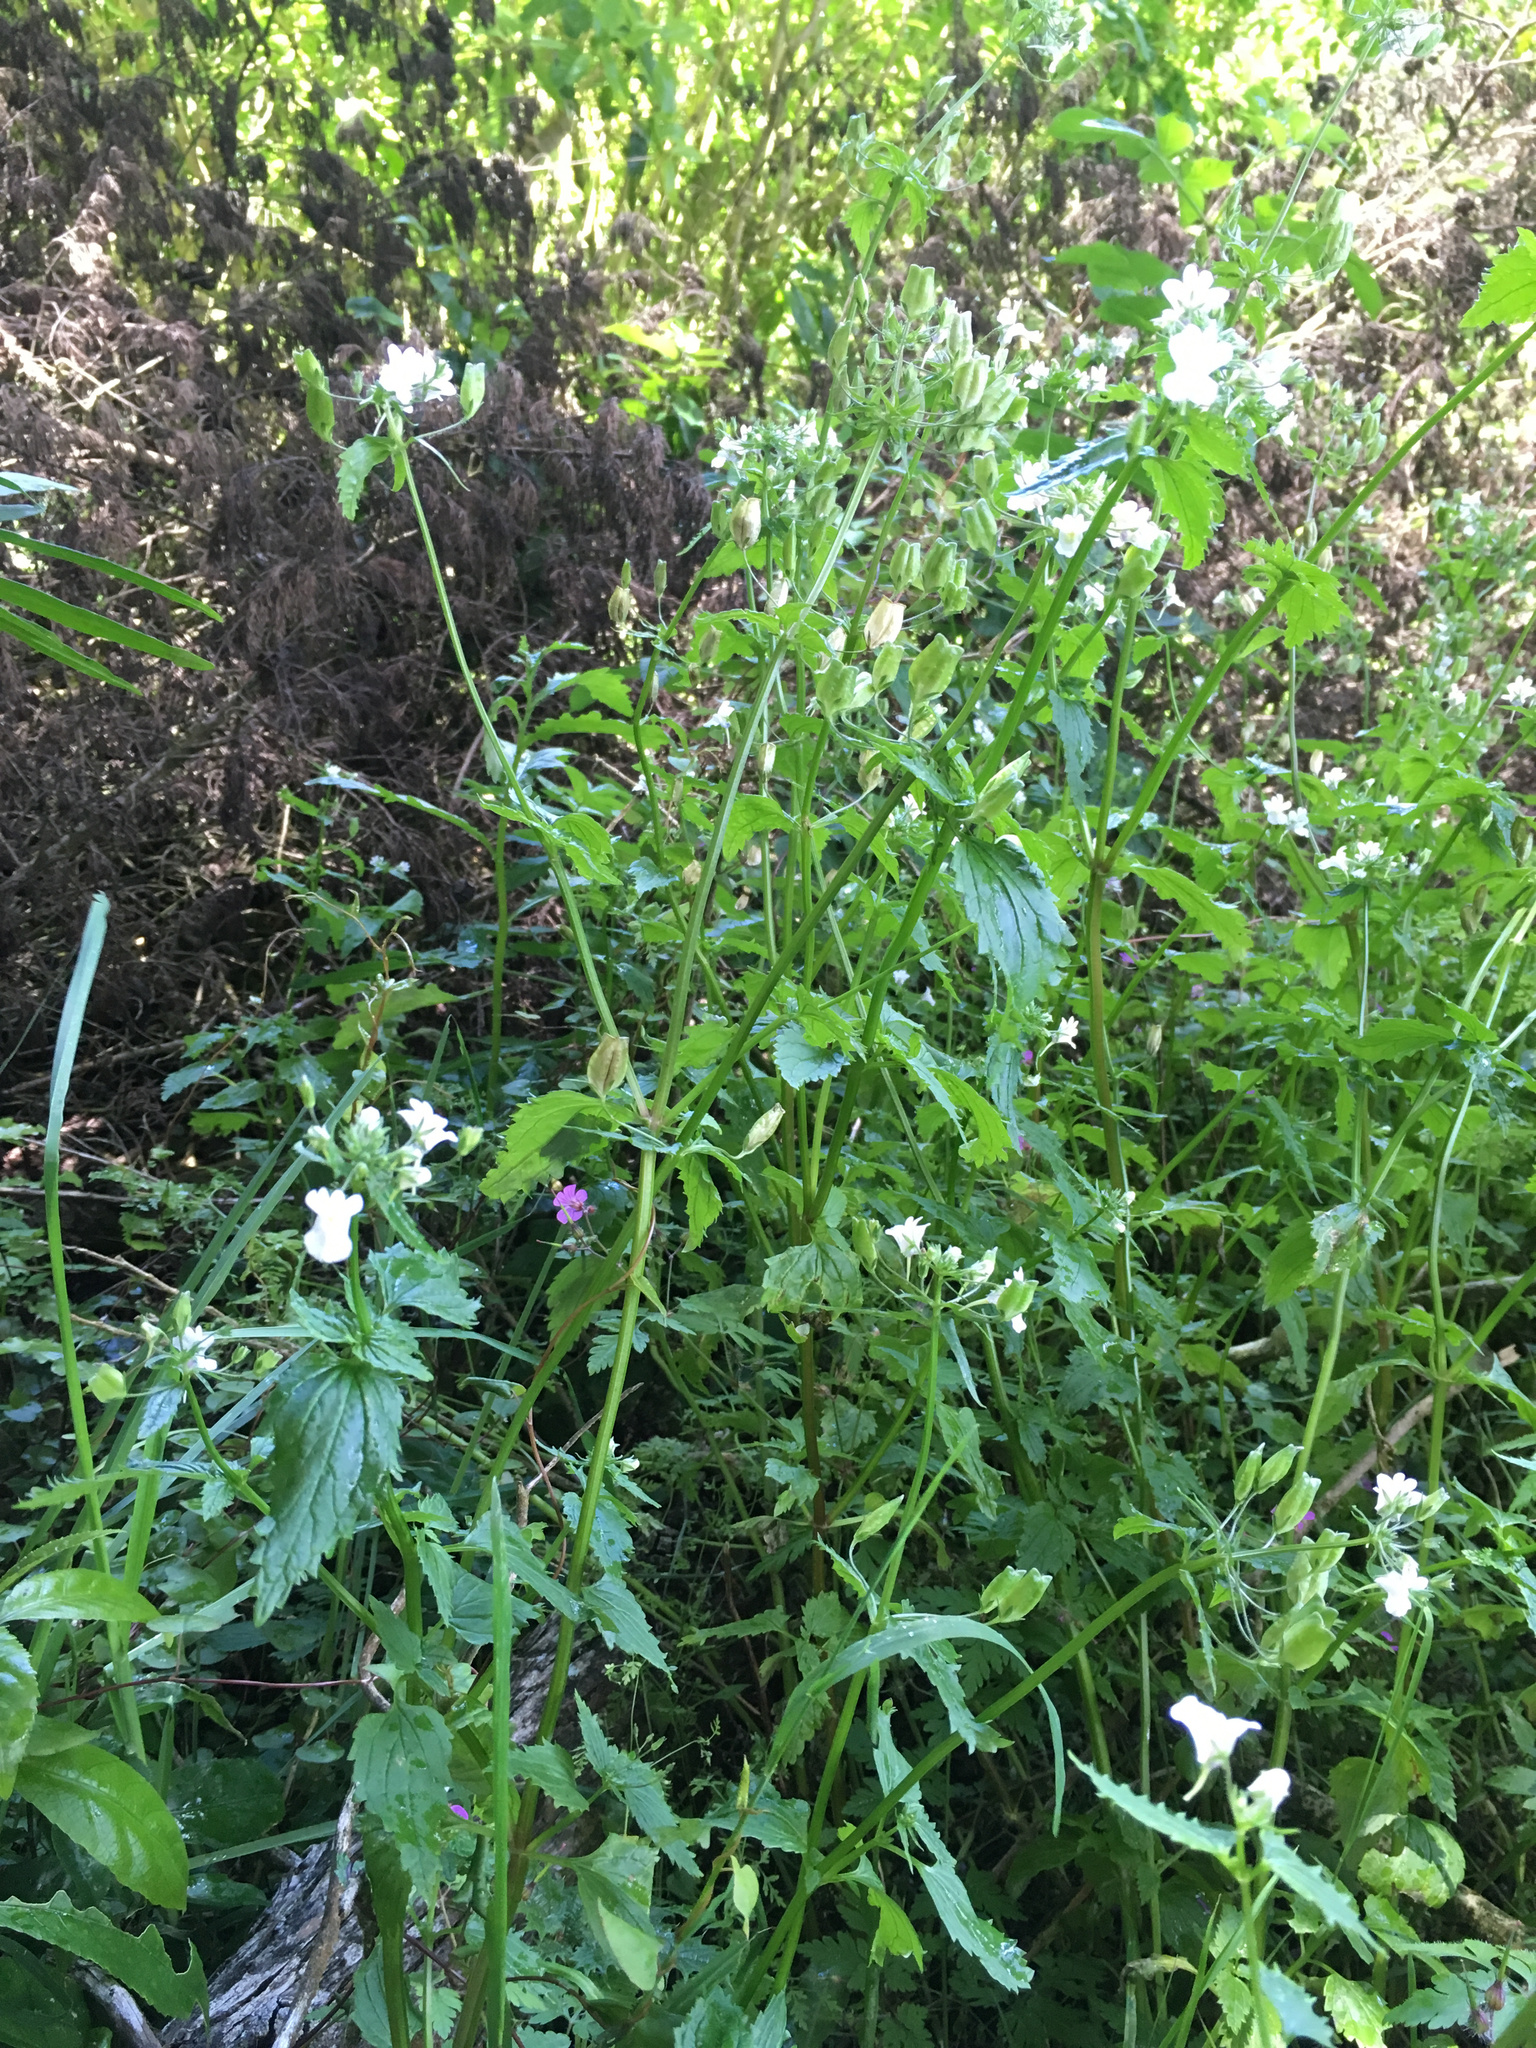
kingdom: Plantae
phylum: Tracheophyta
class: Magnoliopsida
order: Lamiales
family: Scrophulariaceae
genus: Nemesia
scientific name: Nemesia floribunda
